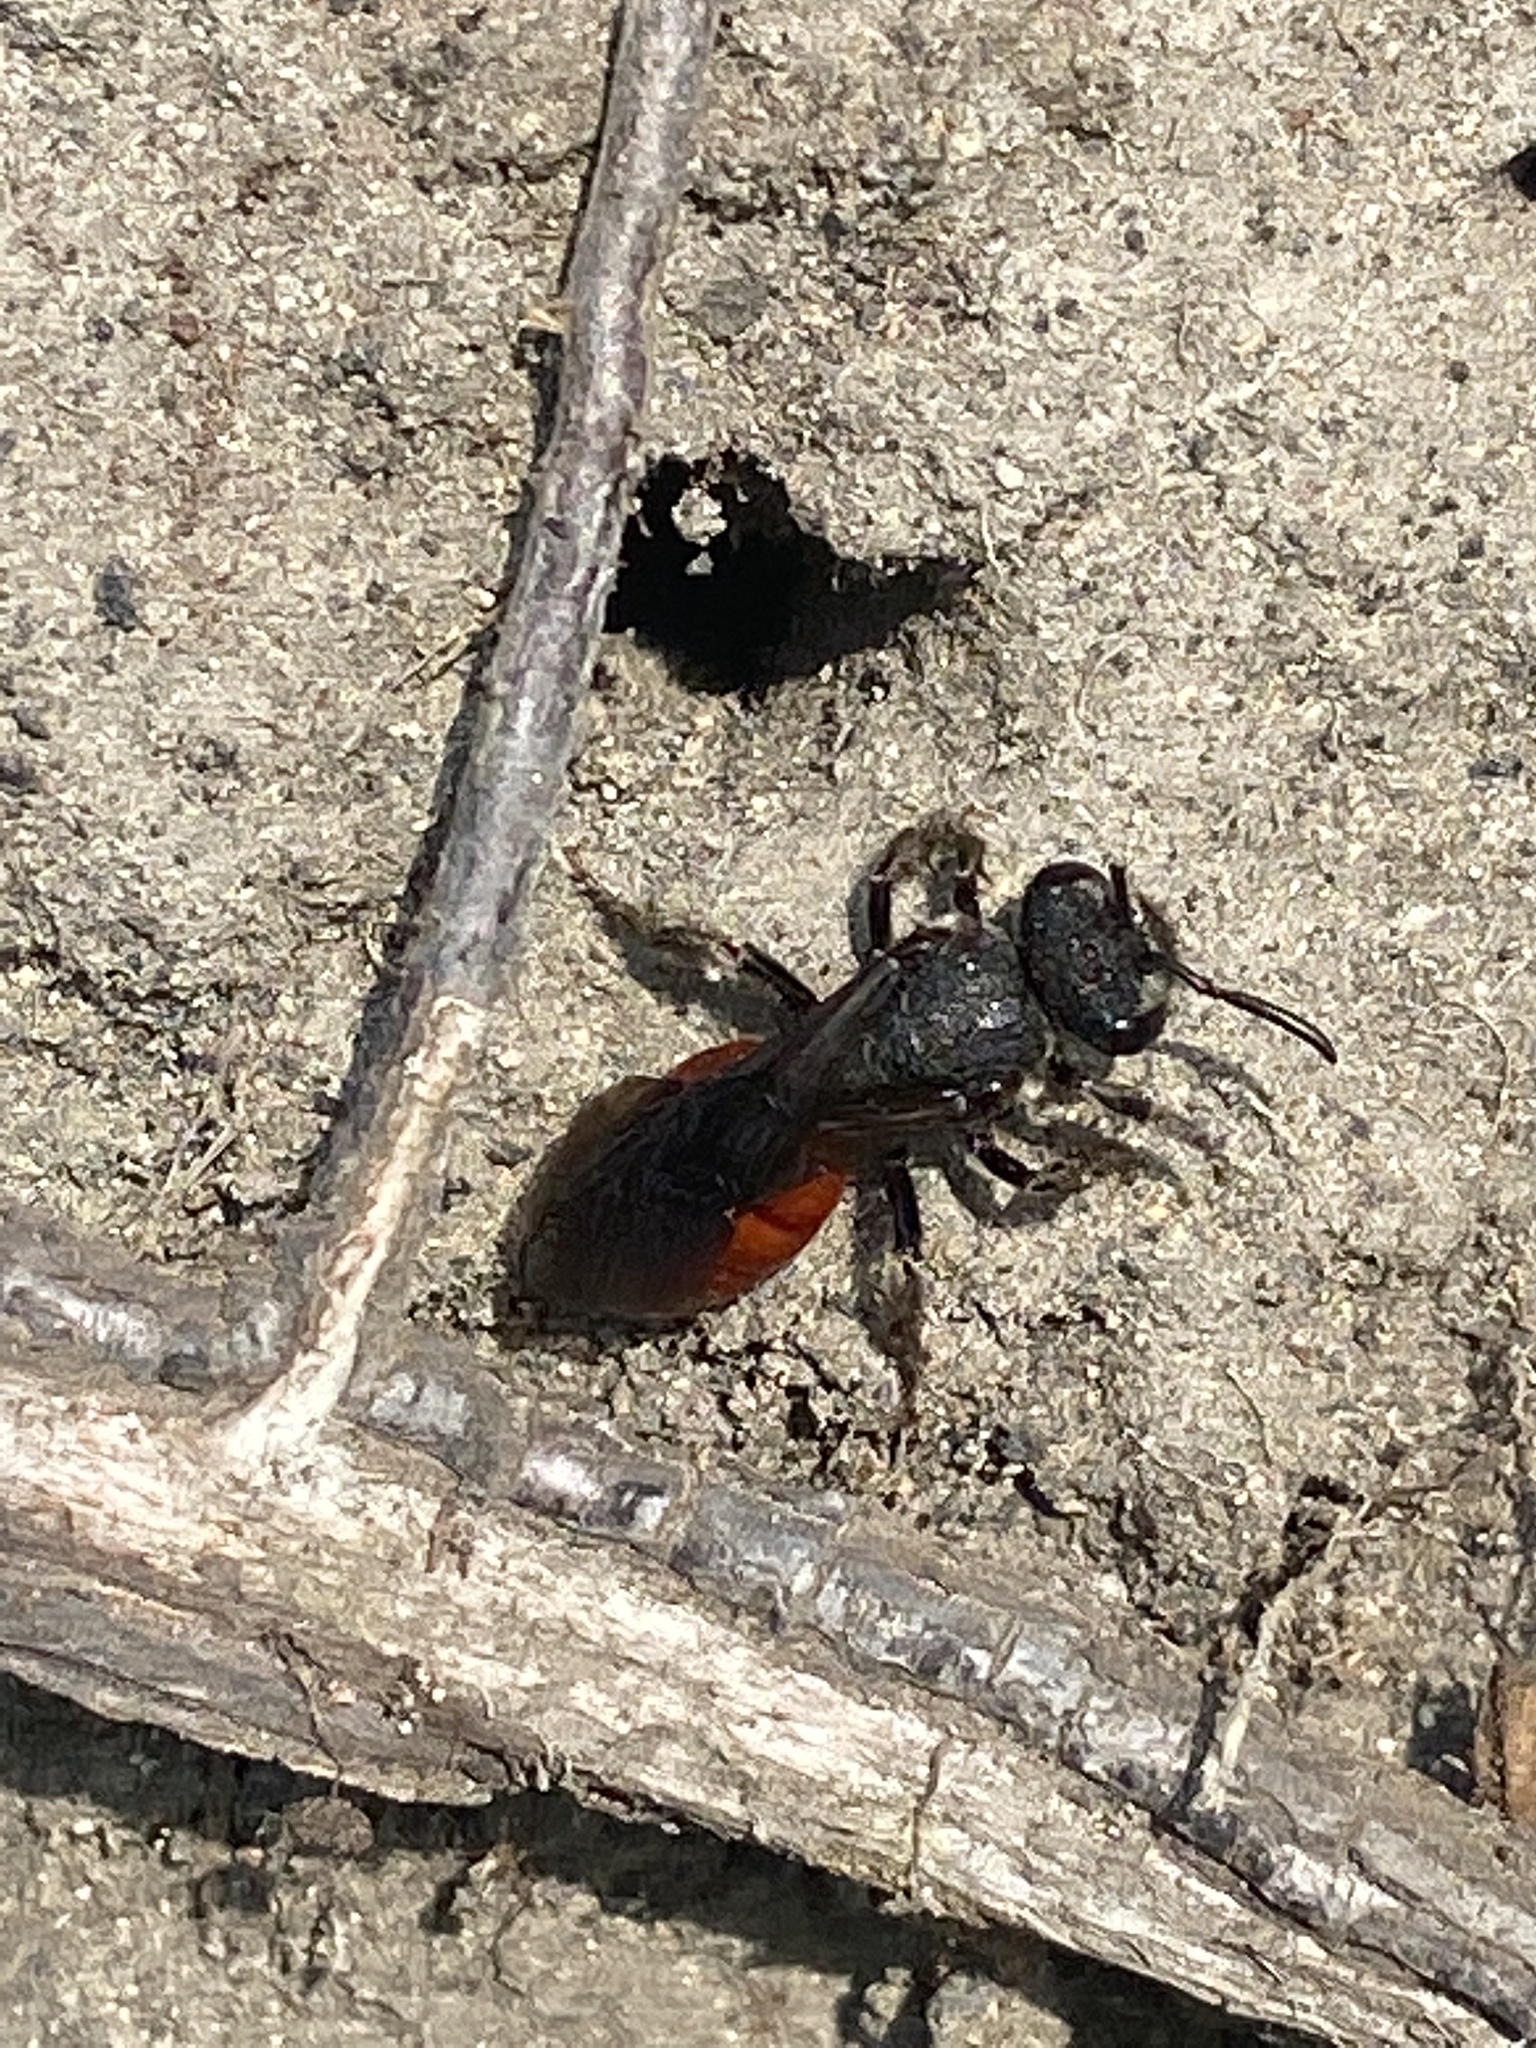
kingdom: Animalia
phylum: Arthropoda
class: Insecta
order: Hymenoptera
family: Halictidae
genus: Sphecodes
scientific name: Sphecodes albilabris
